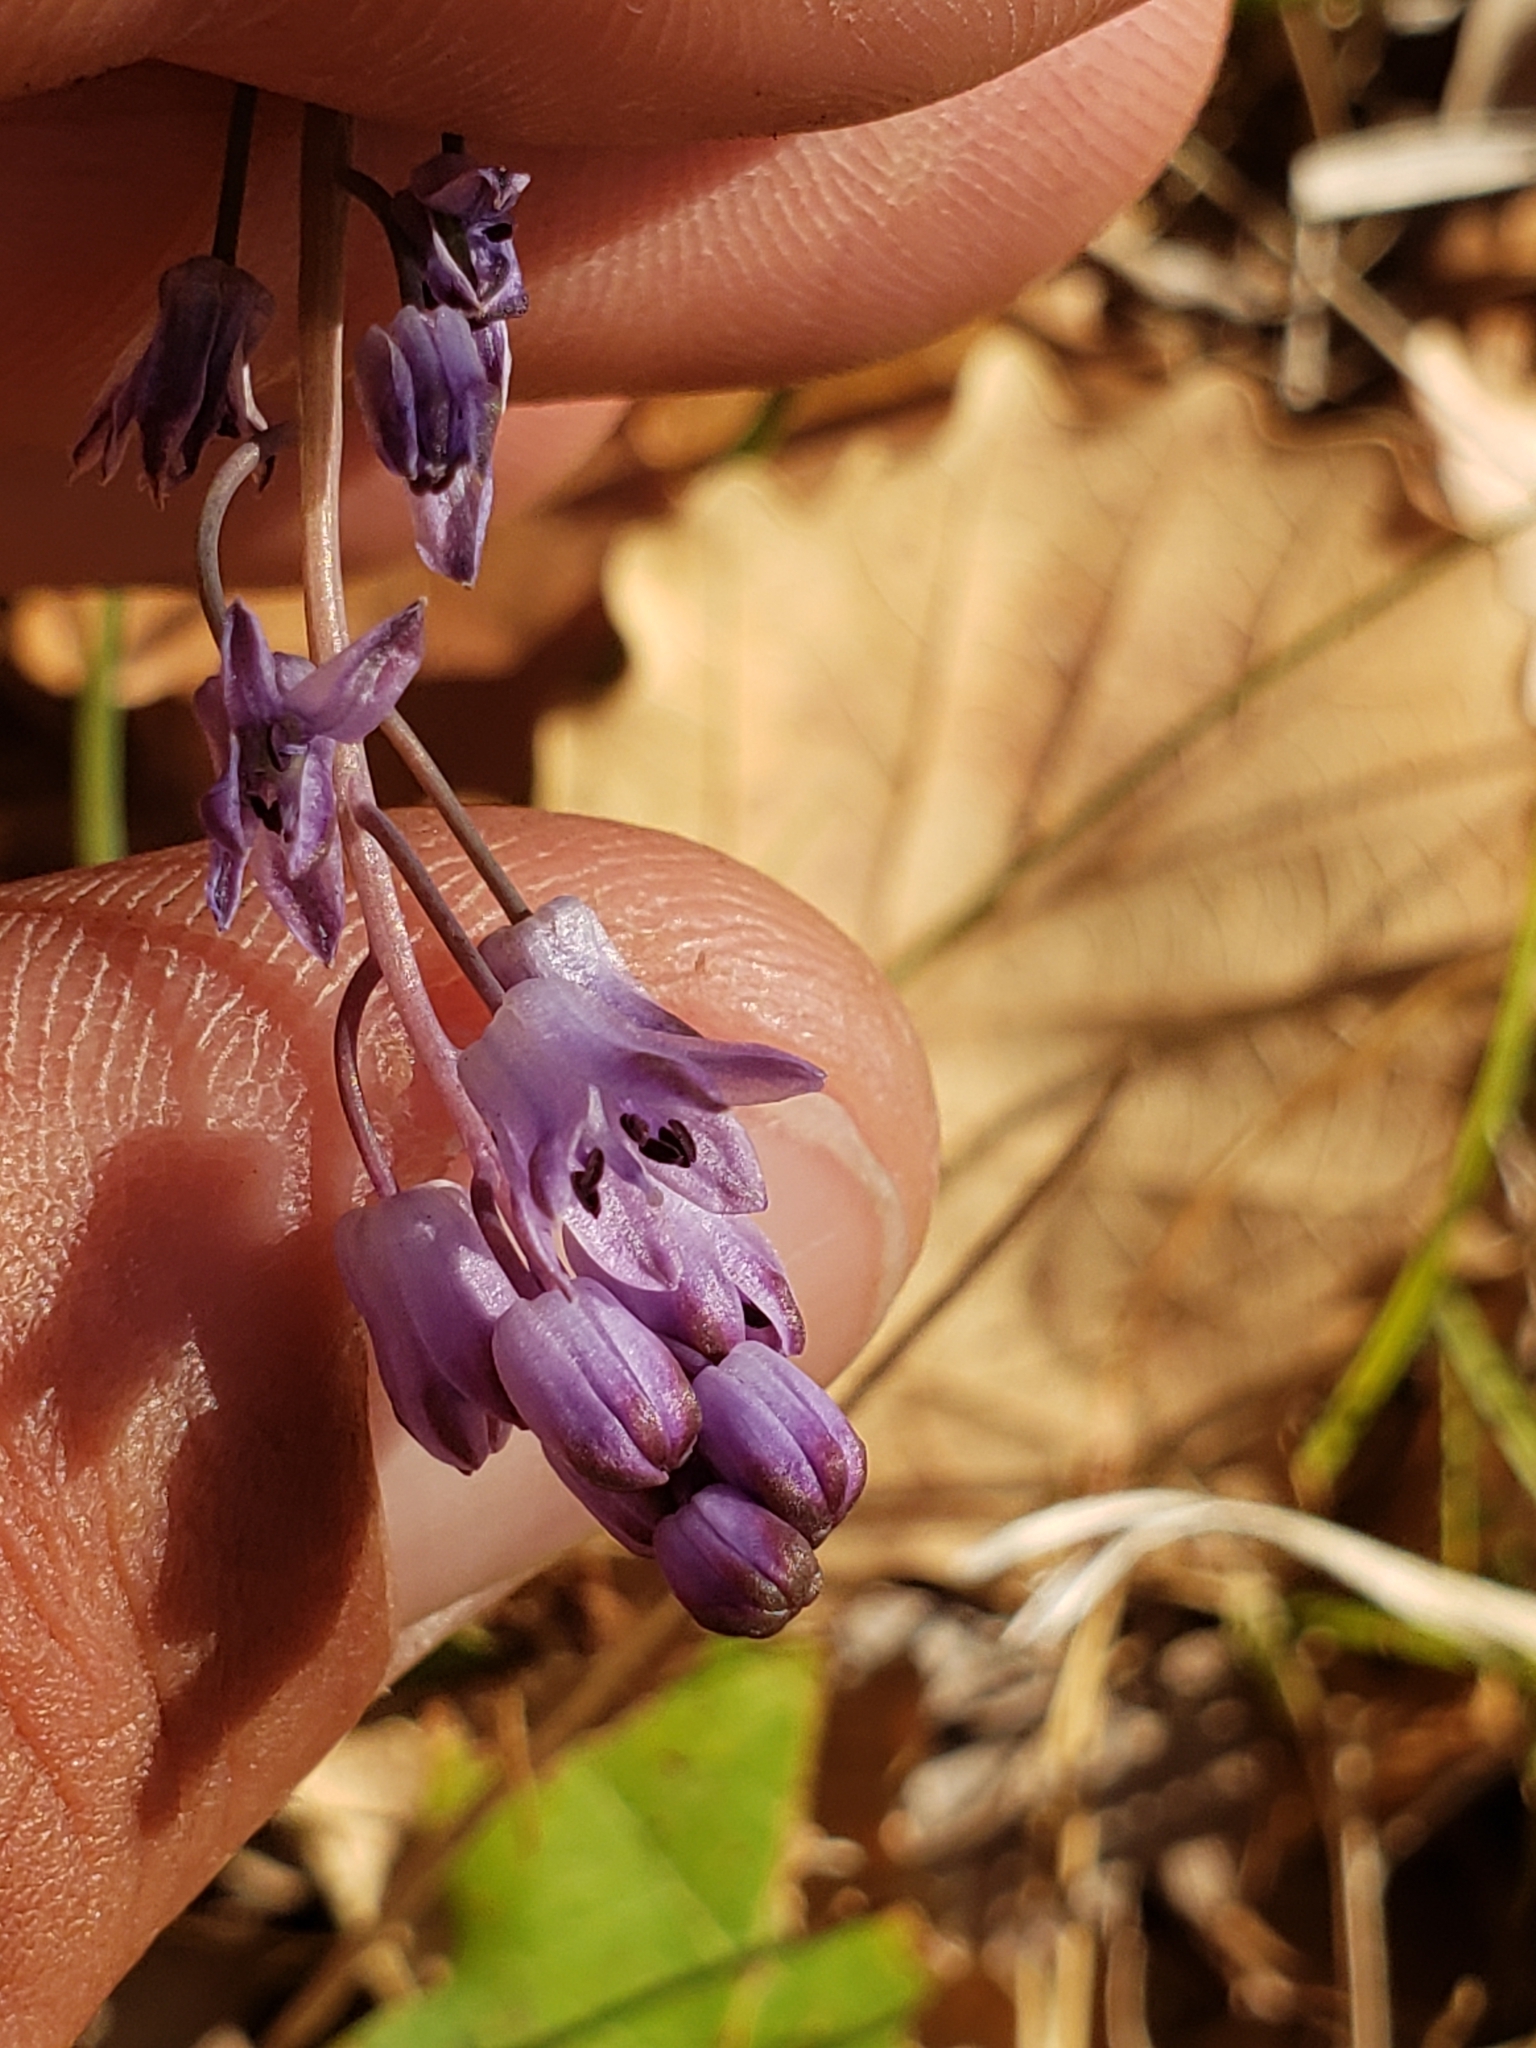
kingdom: Plantae
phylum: Tracheophyta
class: Liliopsida
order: Asparagales
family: Asparagaceae
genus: Prospero
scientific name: Prospero autumnale
